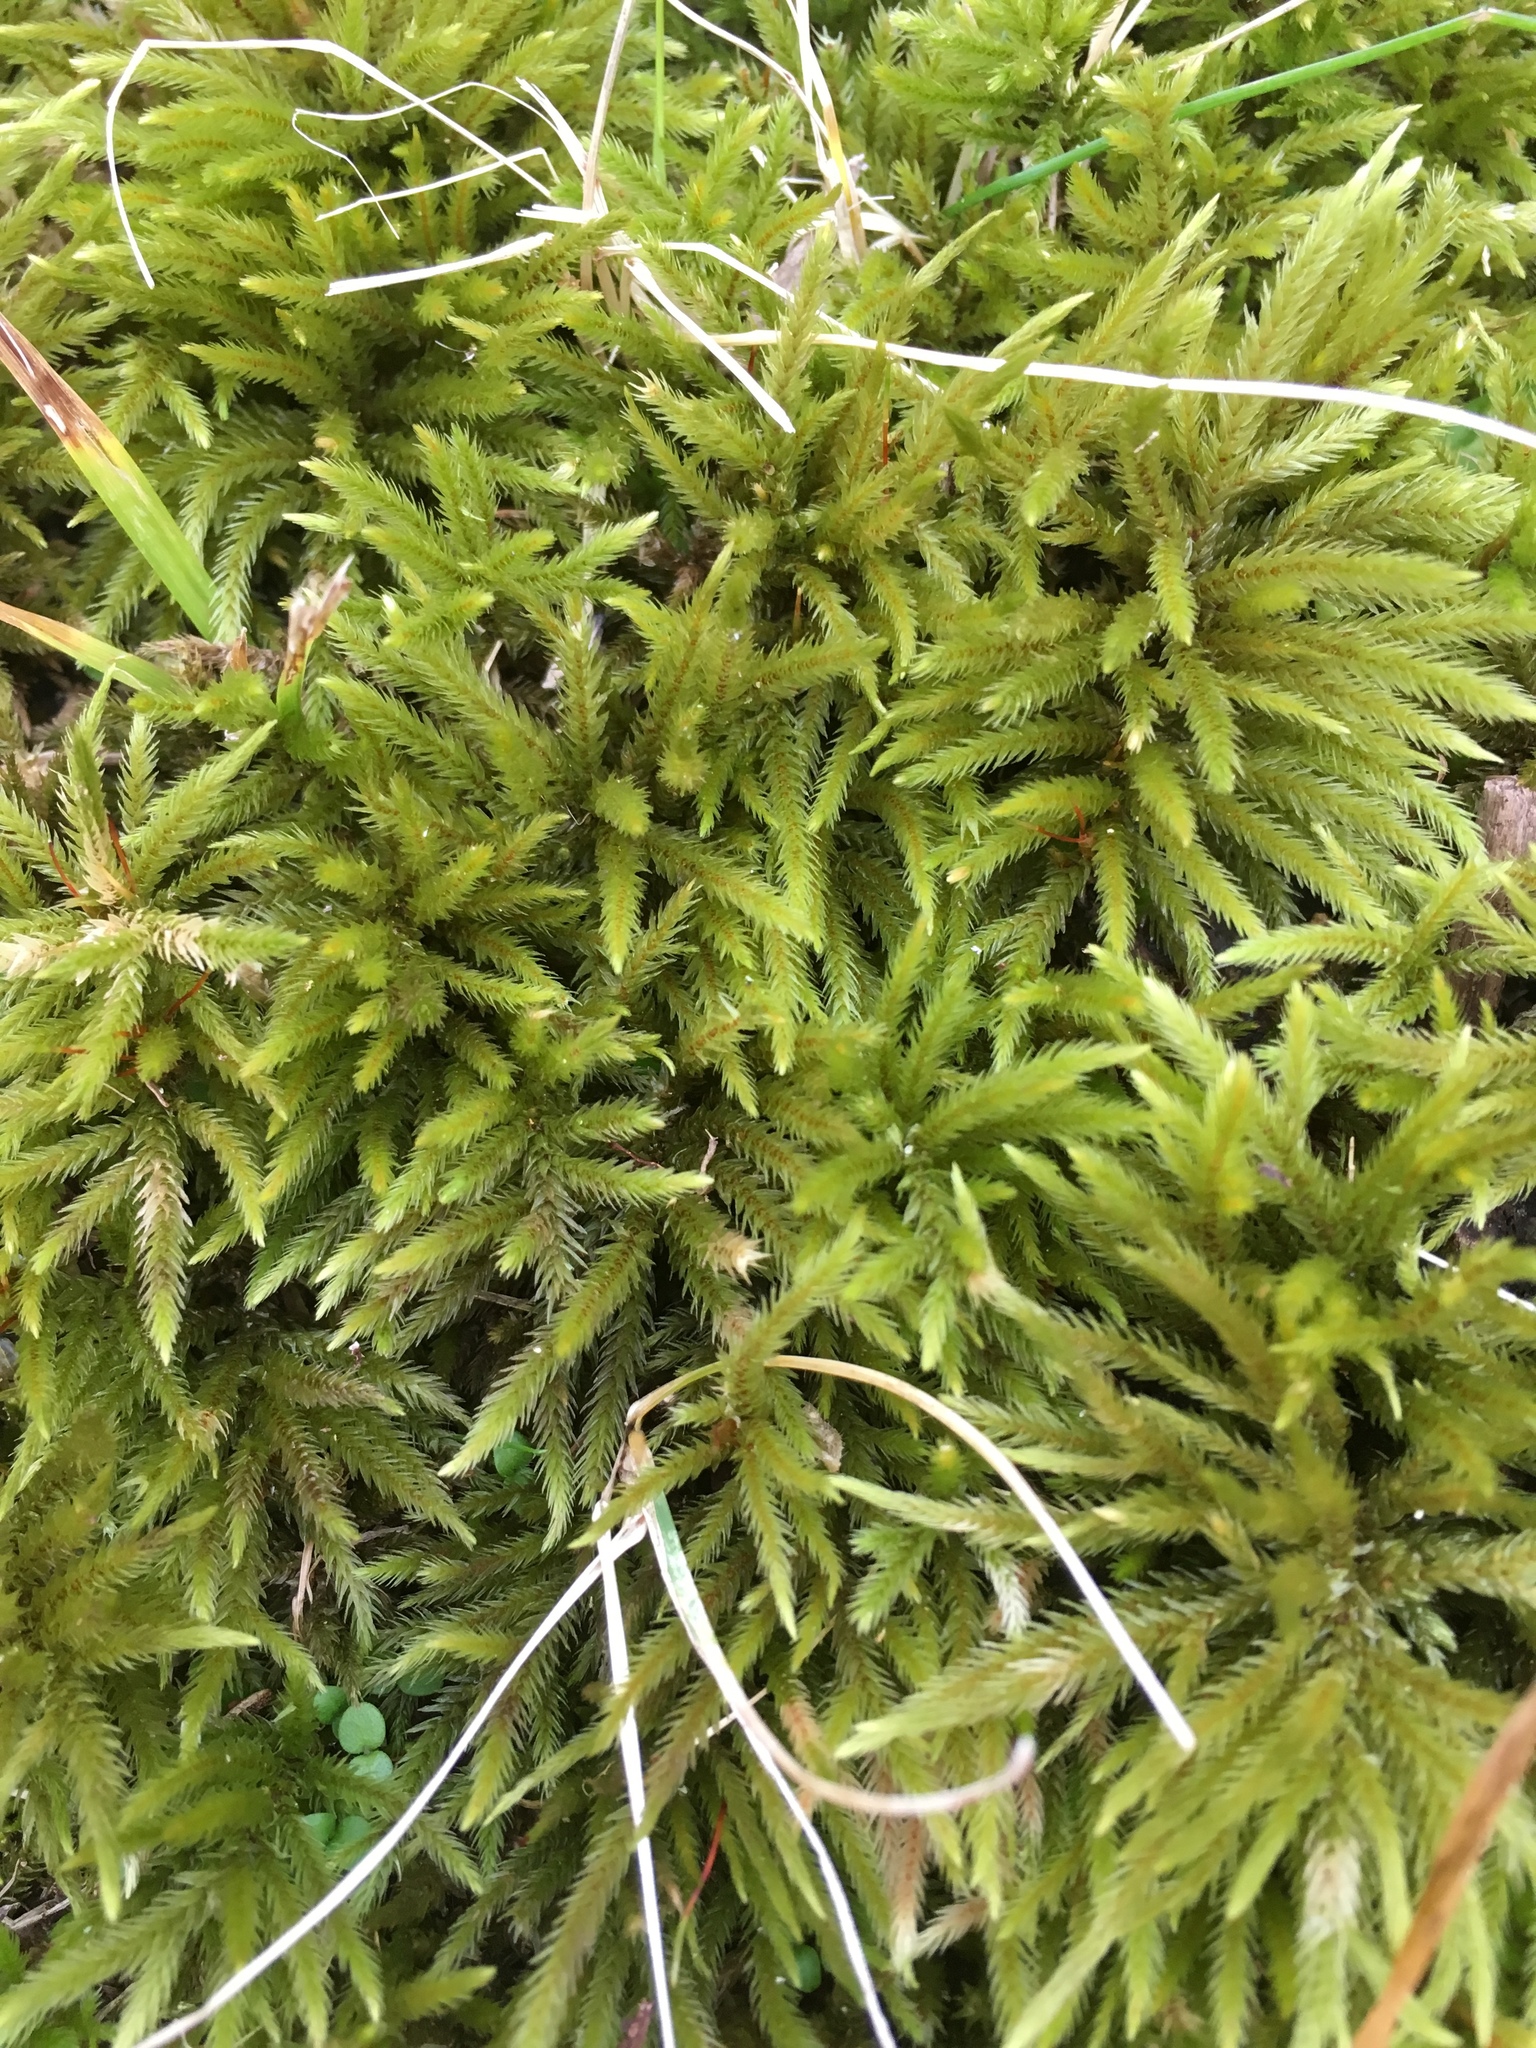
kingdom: Plantae
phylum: Bryophyta
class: Bryopsida
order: Hypnales
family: Climaciaceae
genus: Climacium
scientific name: Climacium americanum
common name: American tree moss
